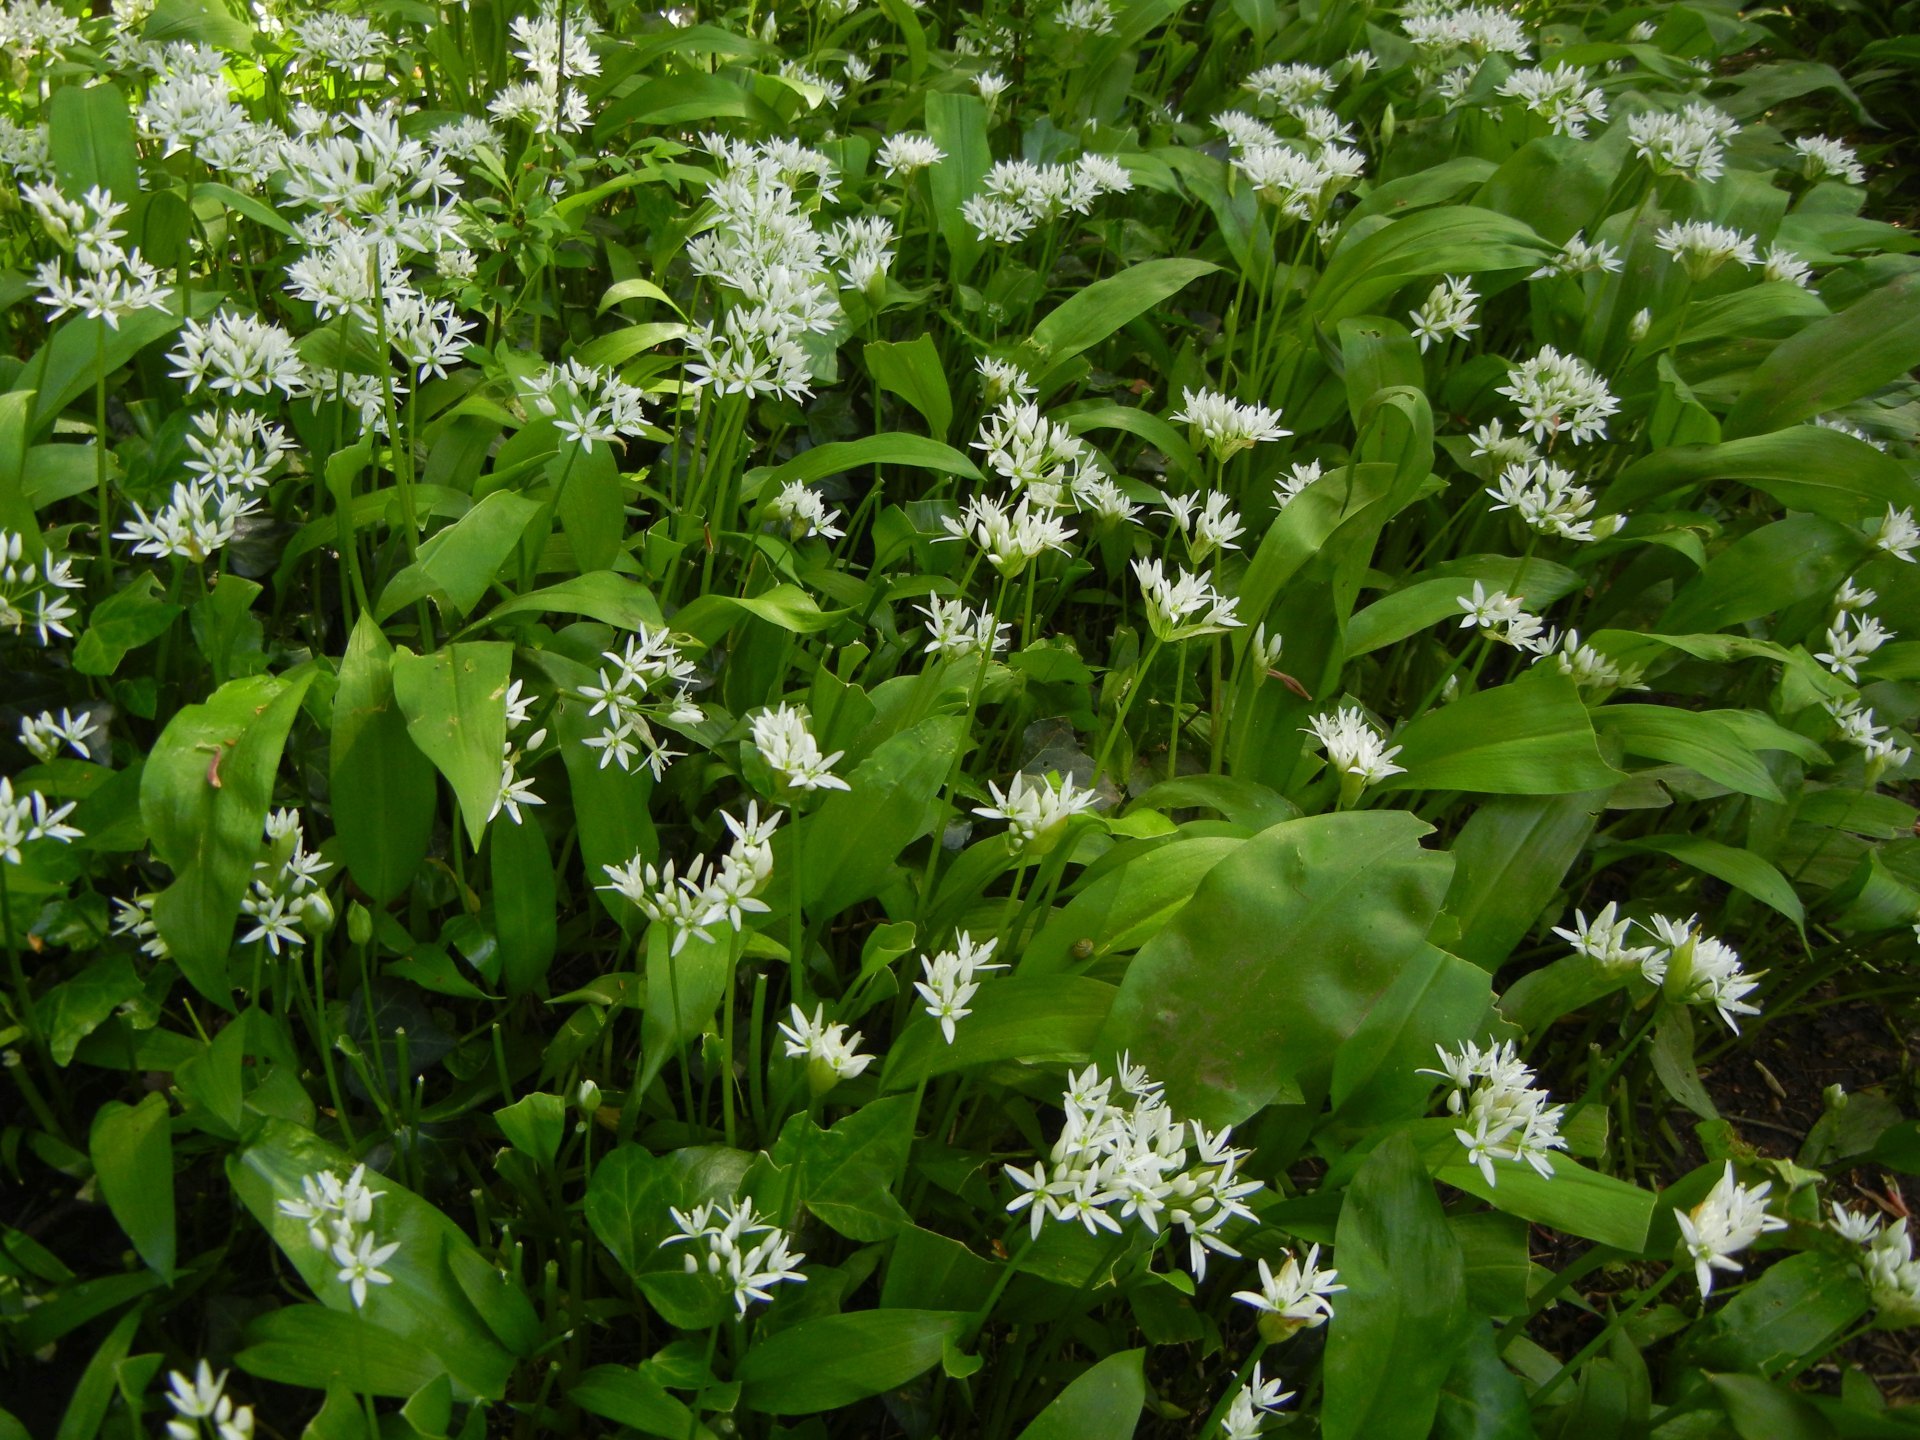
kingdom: Plantae
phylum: Tracheophyta
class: Liliopsida
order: Asparagales
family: Amaryllidaceae
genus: Allium
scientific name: Allium ursinum
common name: Ramsons
